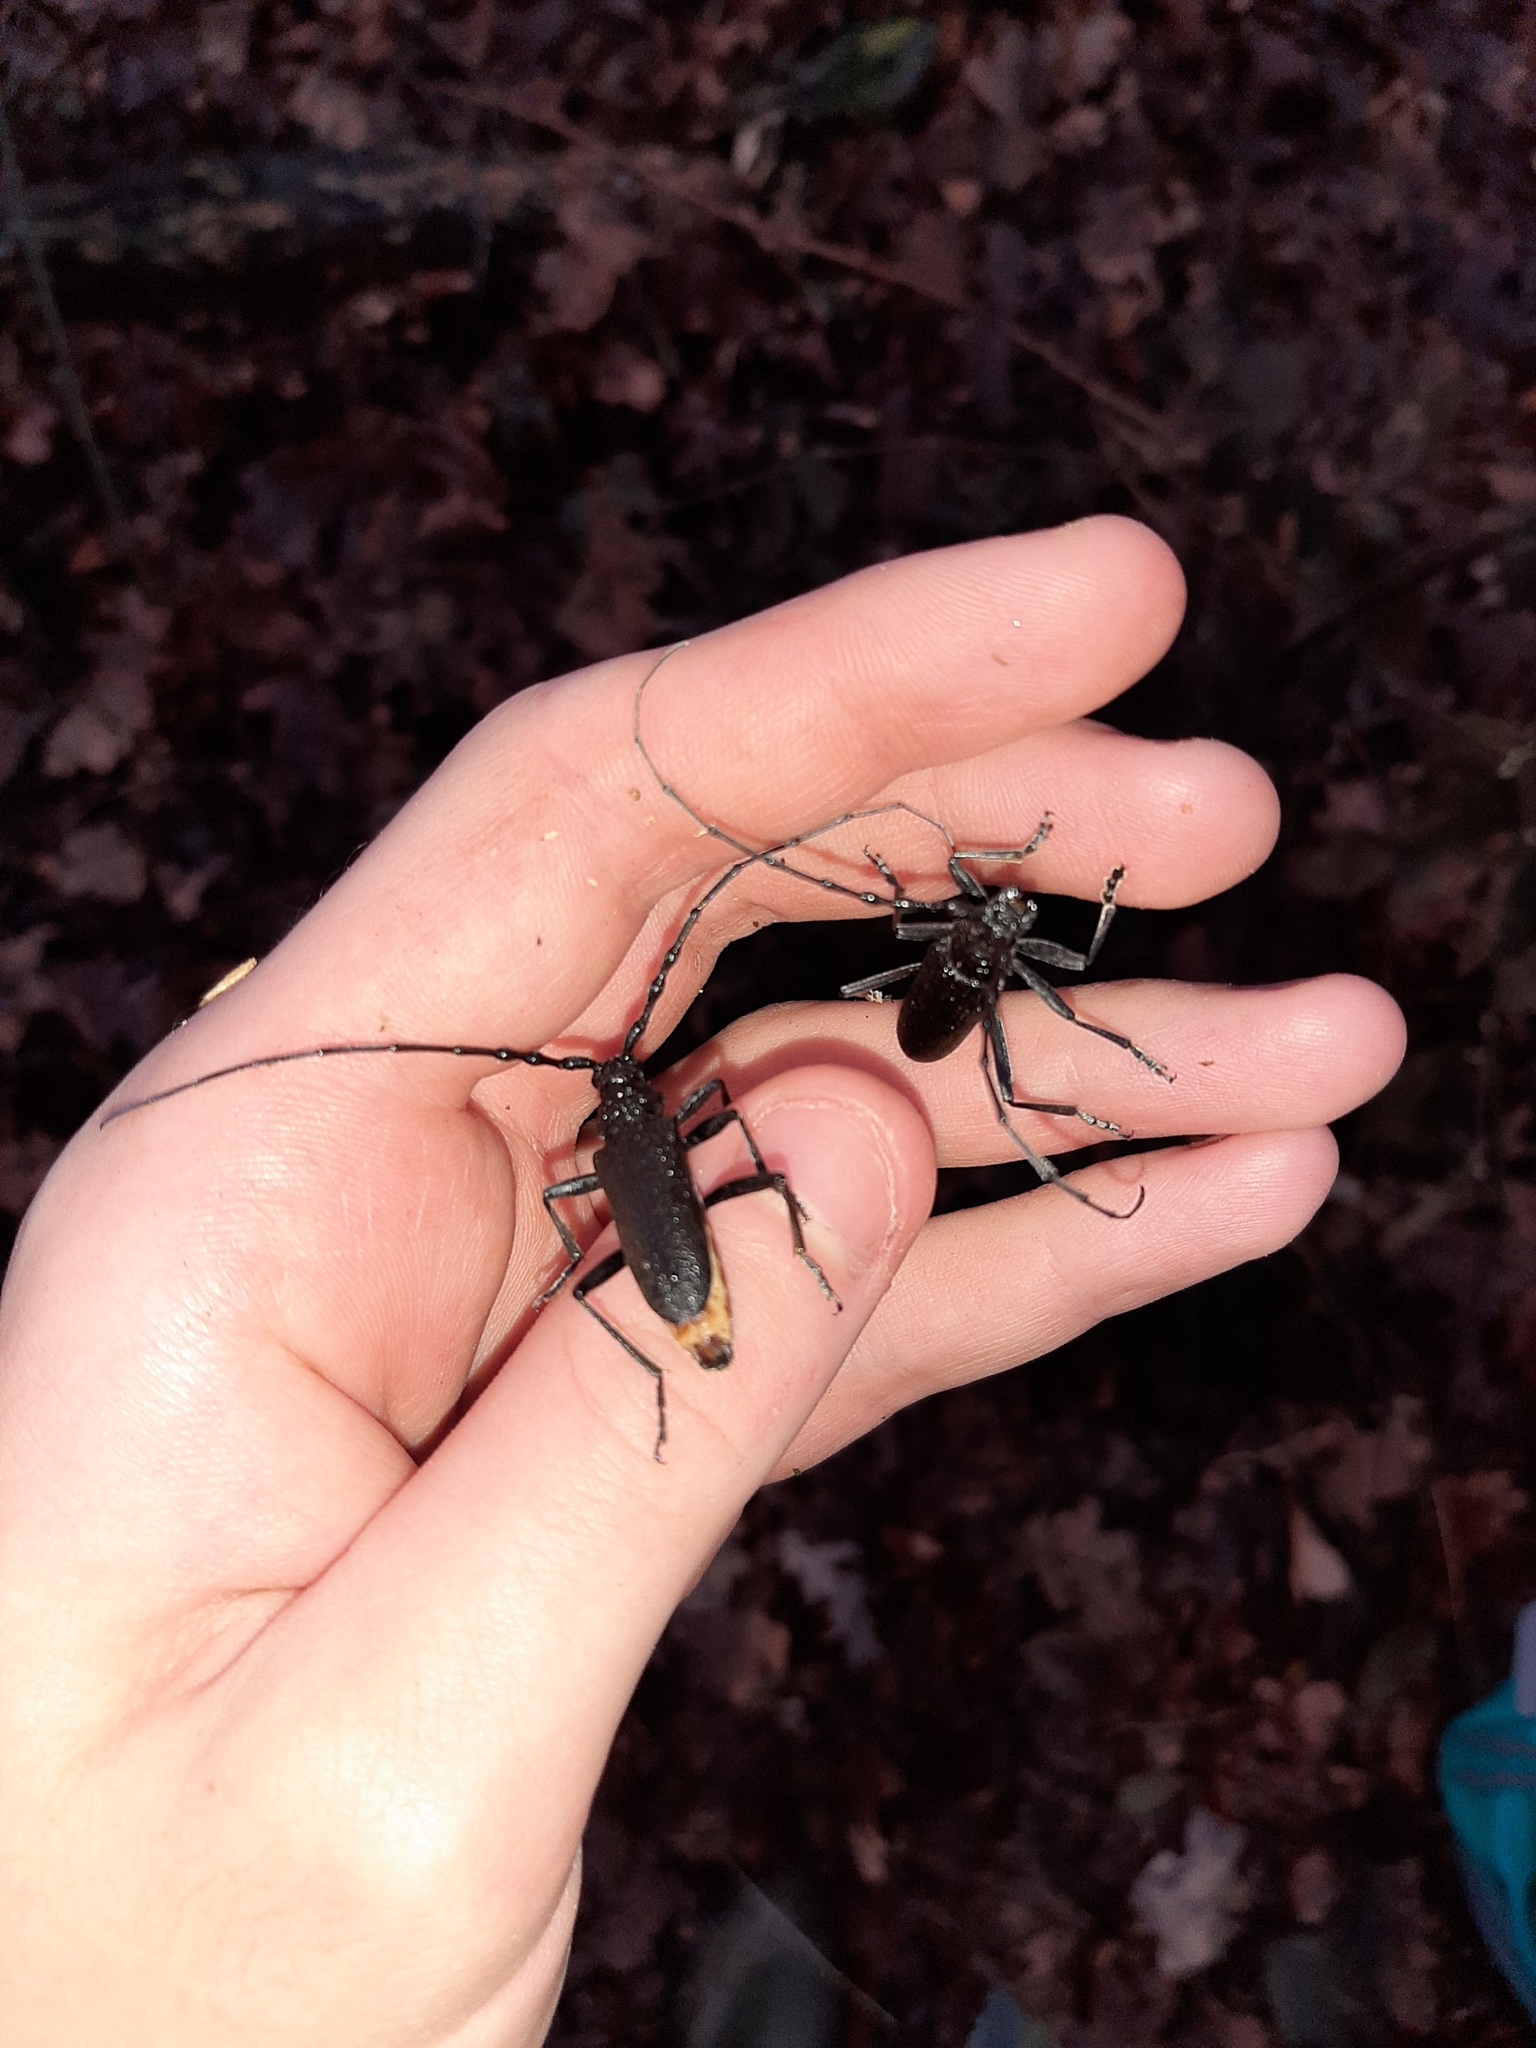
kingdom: Animalia
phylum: Arthropoda
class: Insecta
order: Coleoptera
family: Cerambycidae
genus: Cerambyx
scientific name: Cerambyx scopolii
